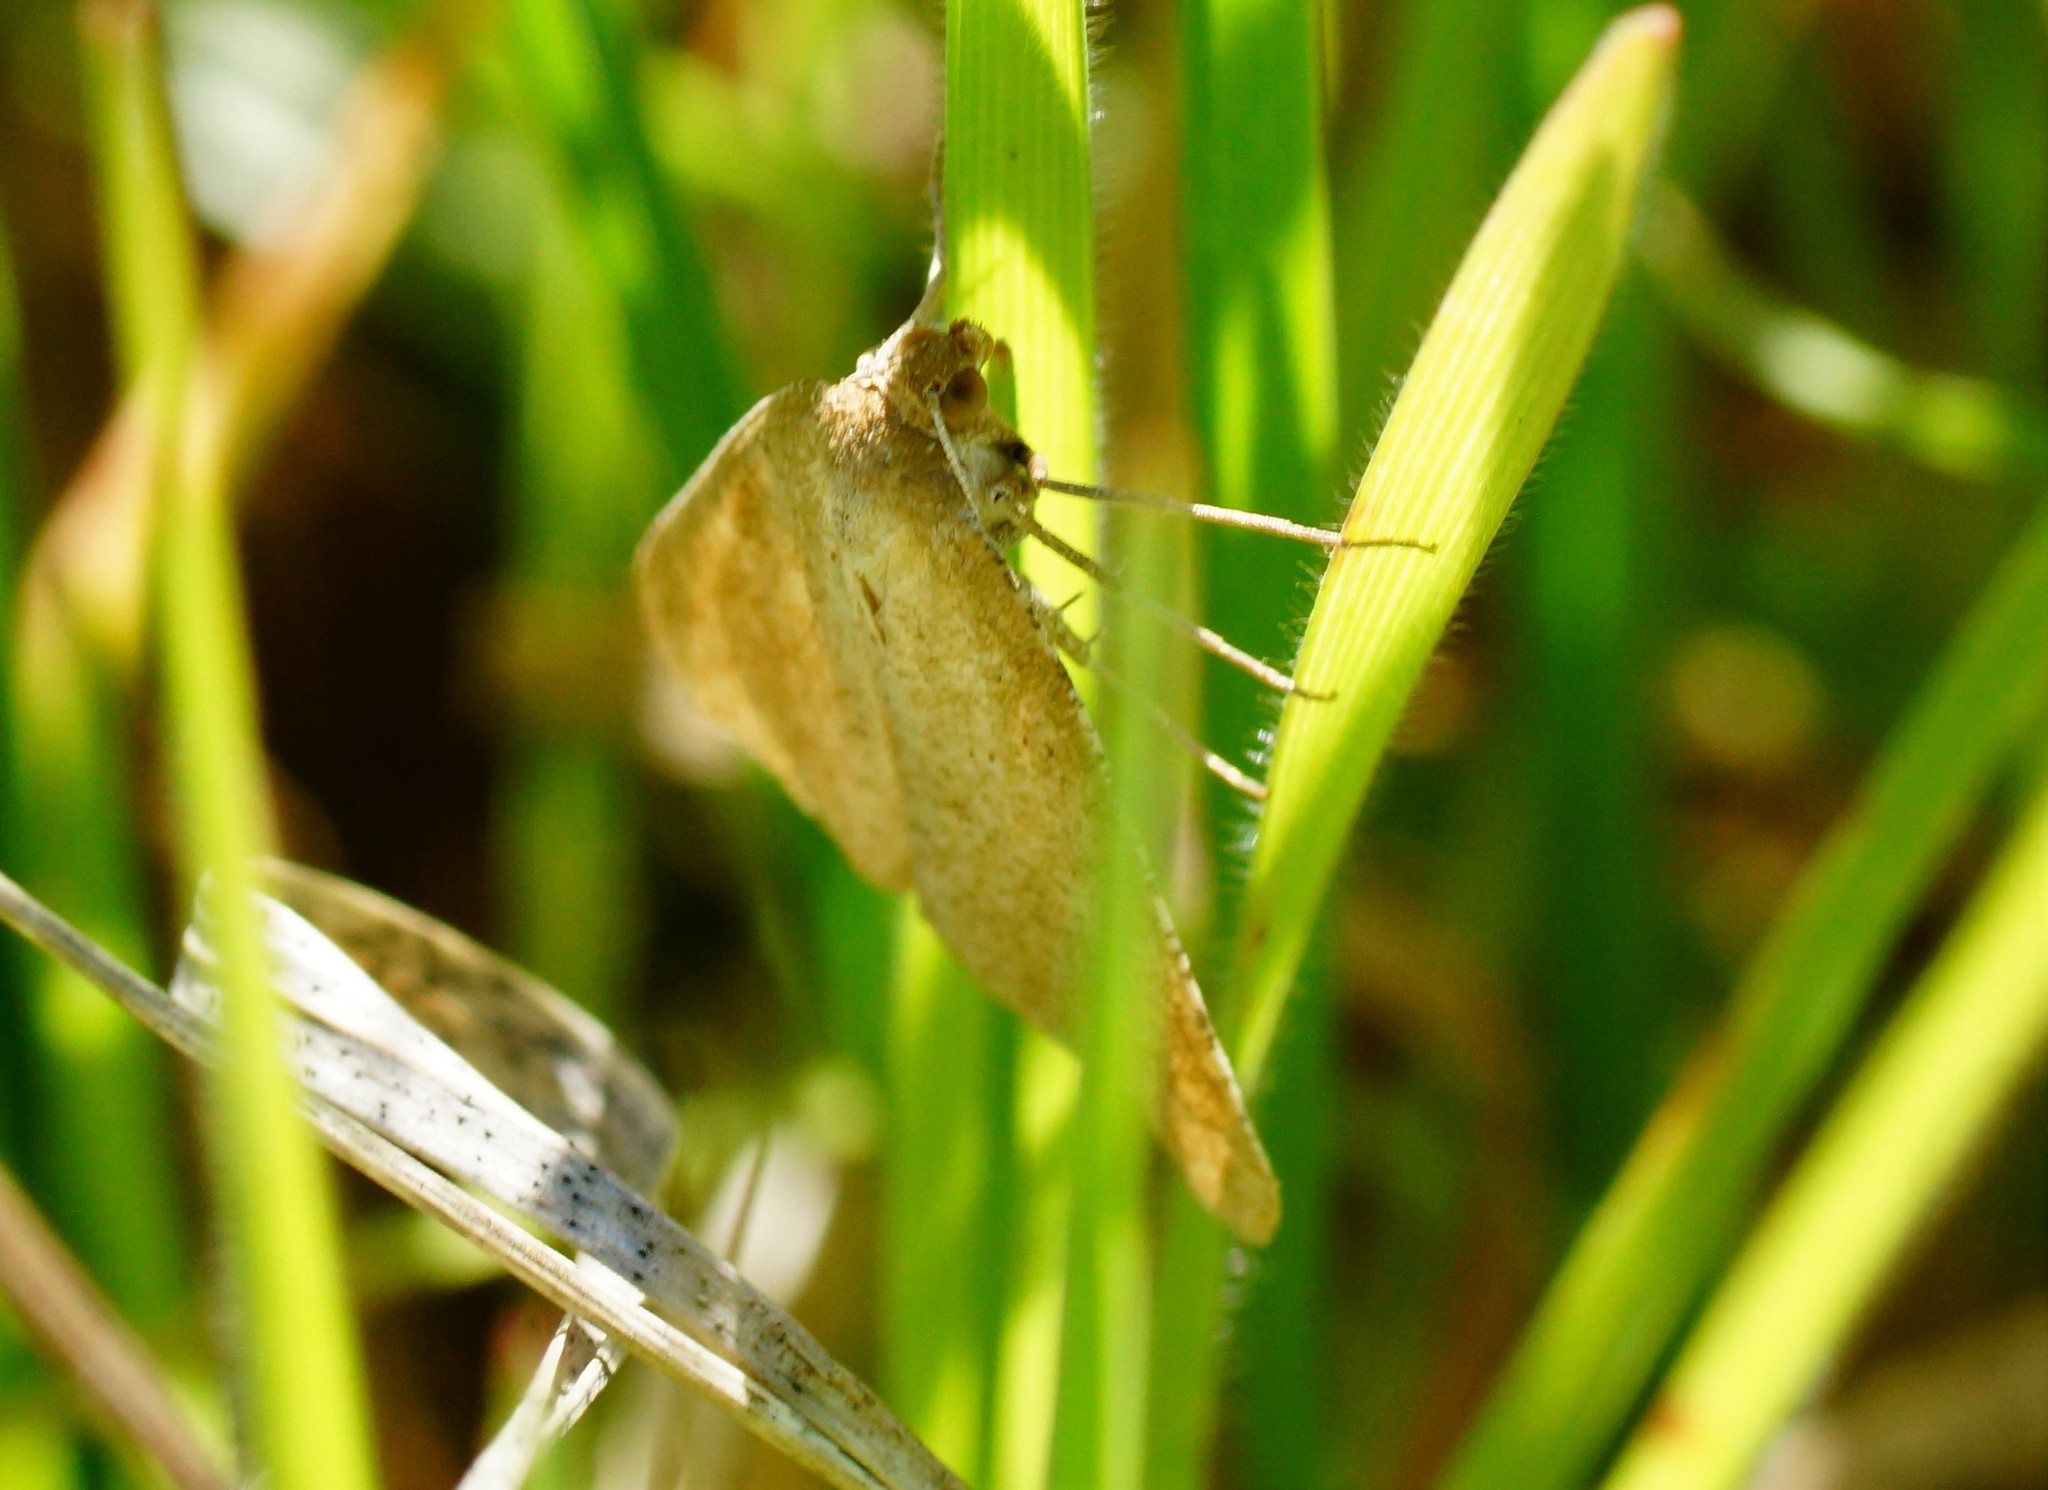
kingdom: Animalia
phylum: Arthropoda
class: Insecta
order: Lepidoptera
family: Geometridae
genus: Neritodes
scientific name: Neritodes verrucata
